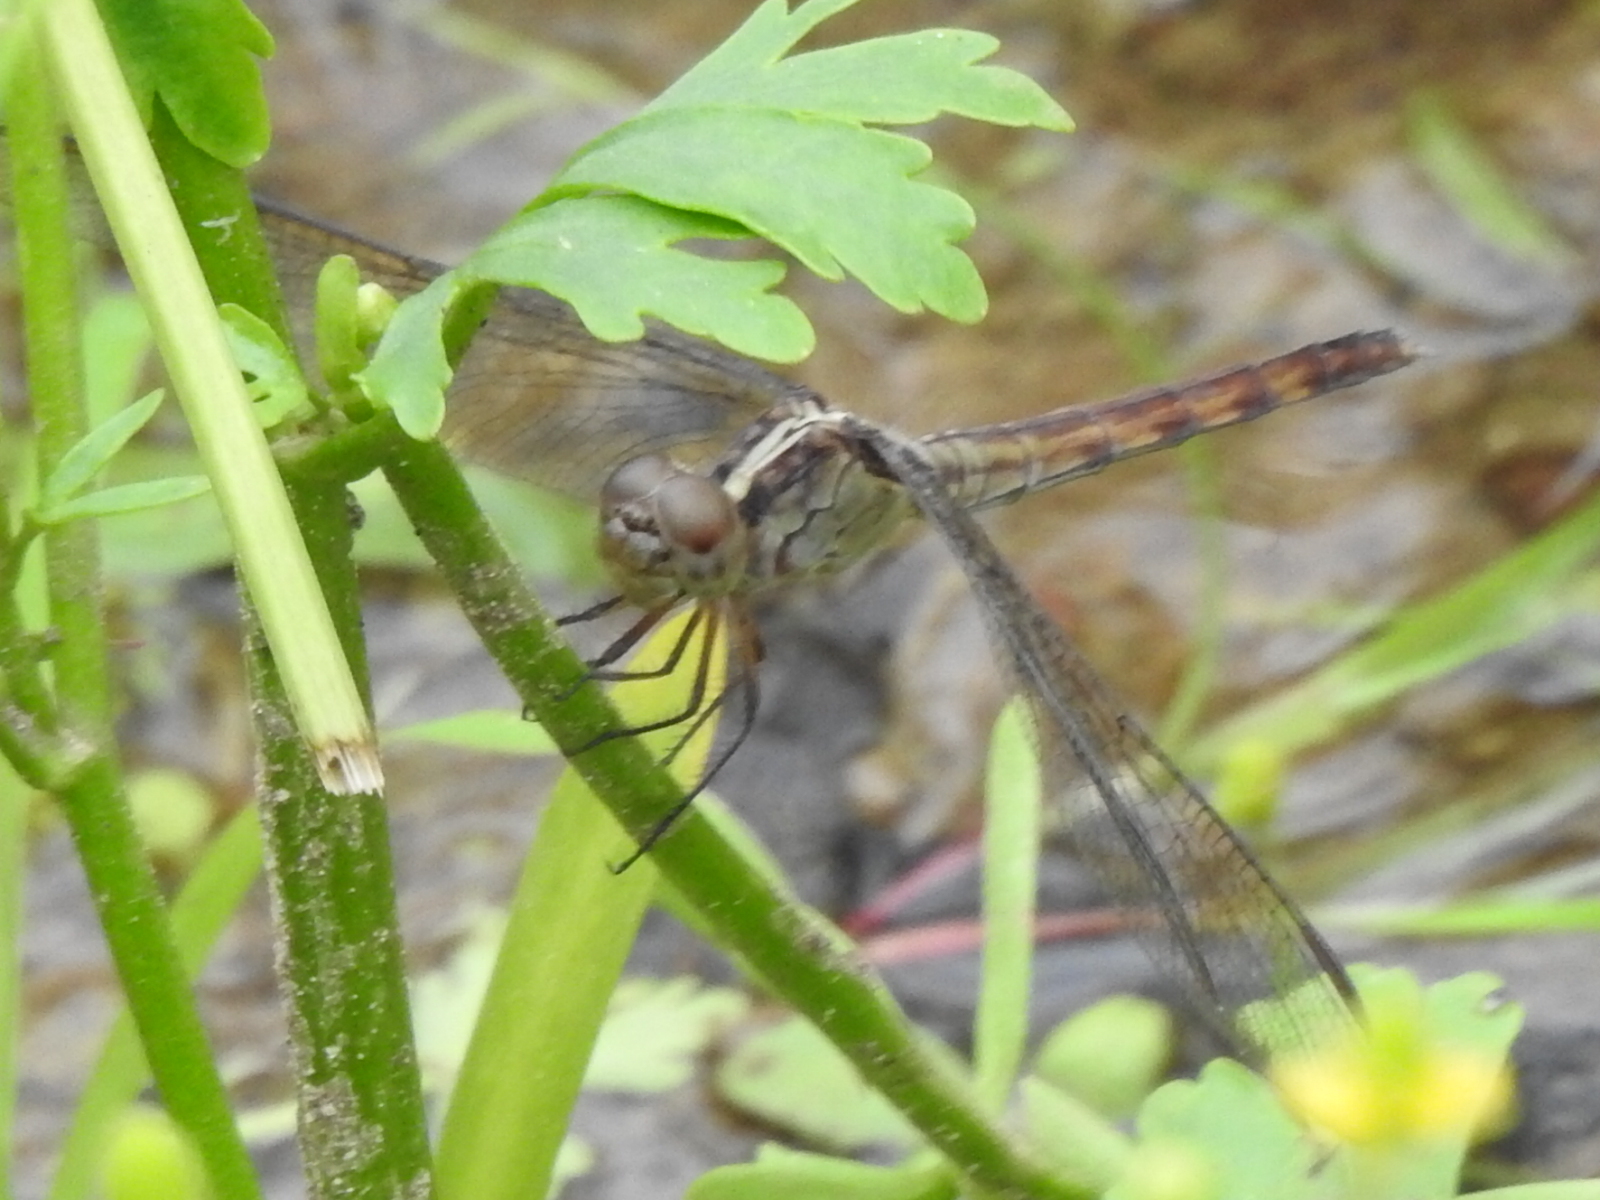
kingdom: Animalia
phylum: Arthropoda
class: Insecta
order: Odonata
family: Libellulidae
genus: Erythrodiplax
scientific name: Erythrodiplax umbrata
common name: Band-winged dragonlet
